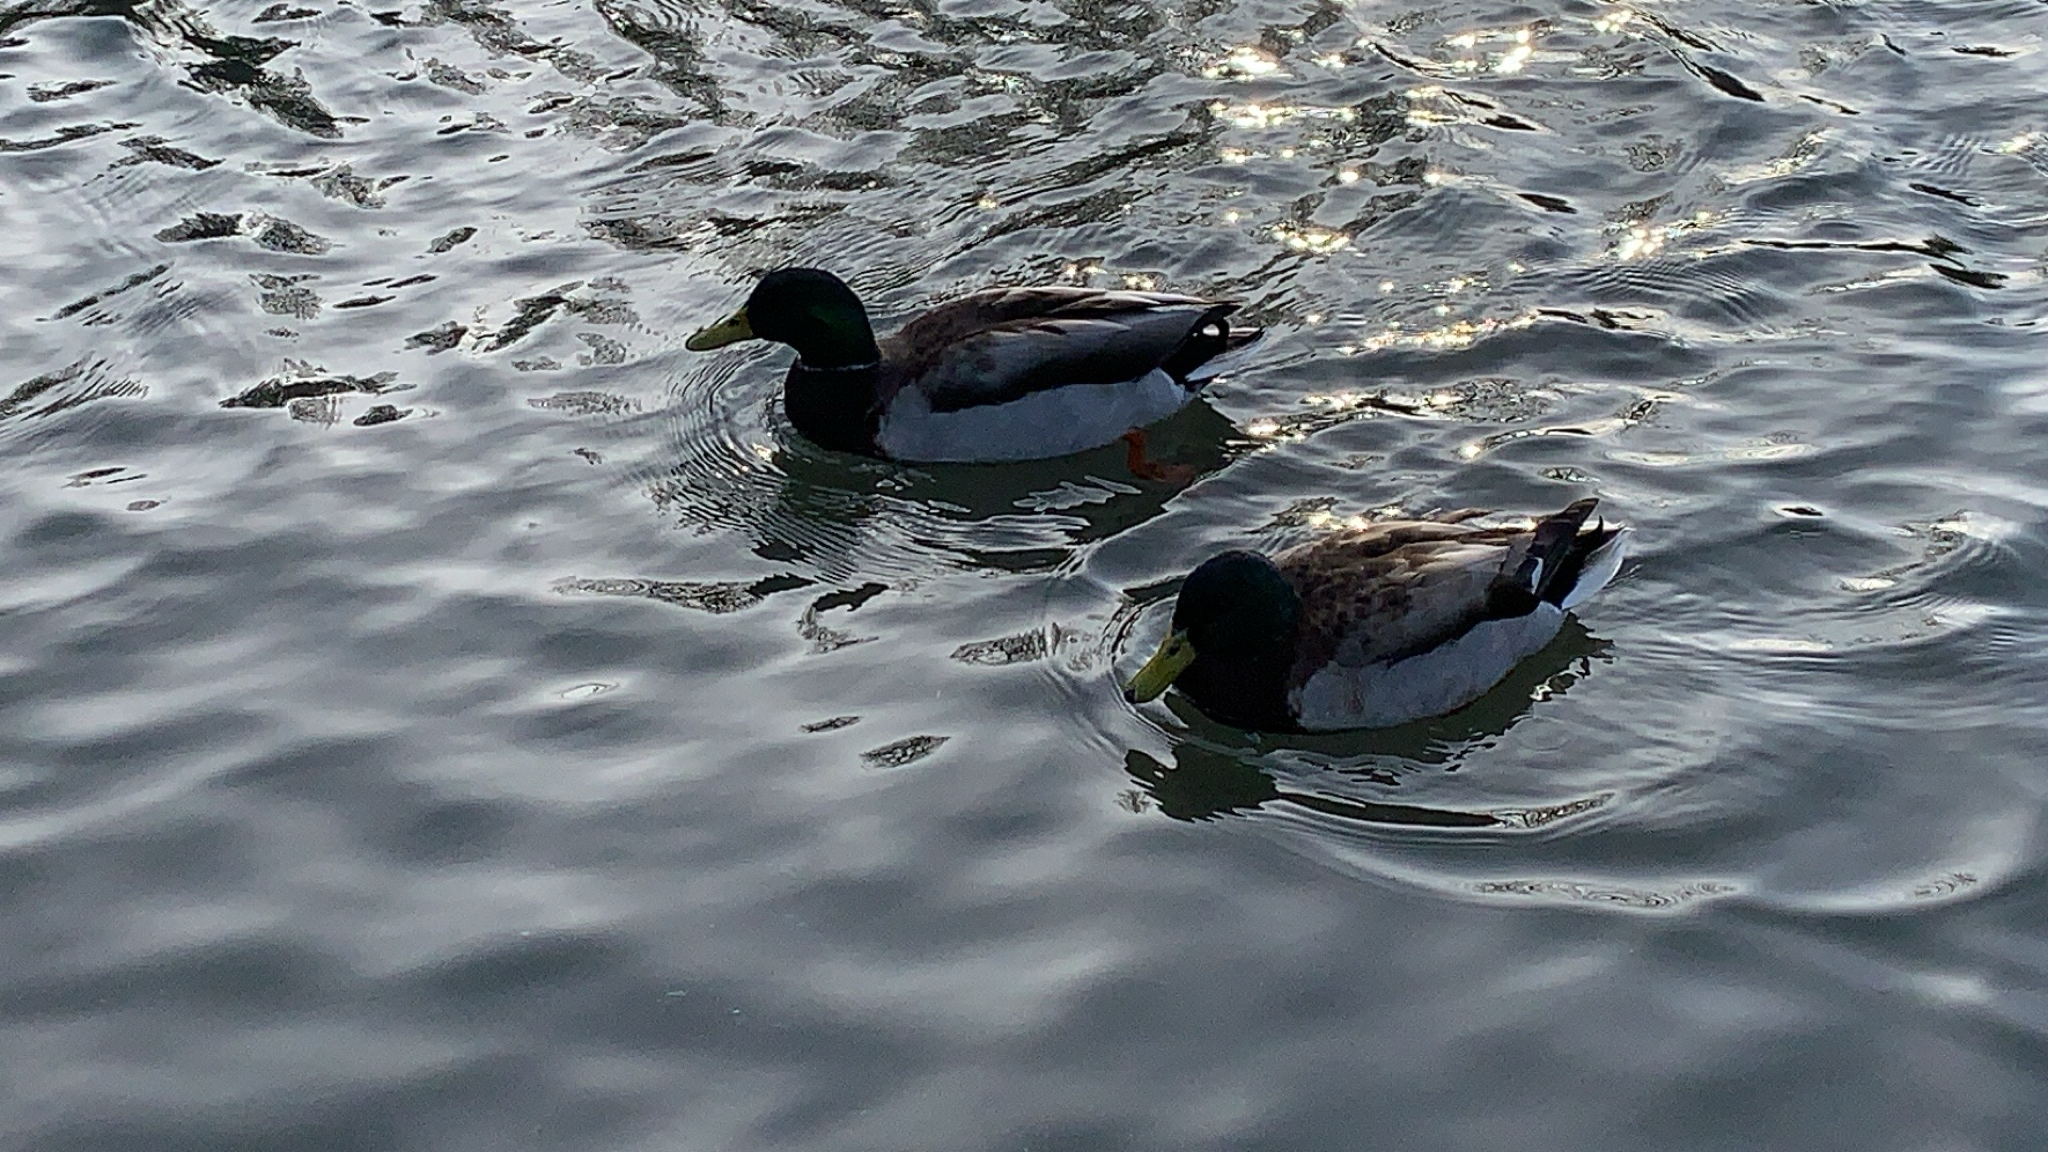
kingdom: Animalia
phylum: Chordata
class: Aves
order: Anseriformes
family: Anatidae
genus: Anas
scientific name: Anas platyrhynchos
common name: Mallard
